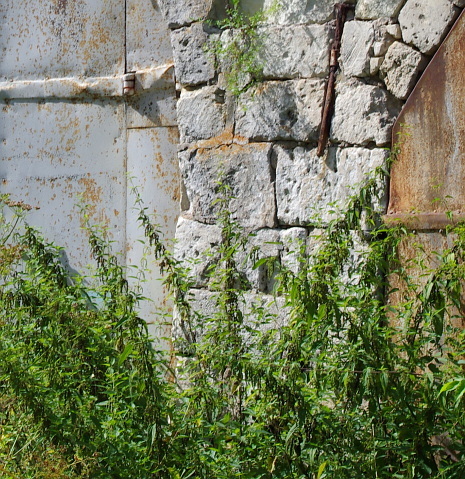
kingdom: Plantae
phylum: Tracheophyta
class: Magnoliopsida
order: Rosales
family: Urticaceae
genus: Urtica
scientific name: Urtica dioica
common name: Common nettle
